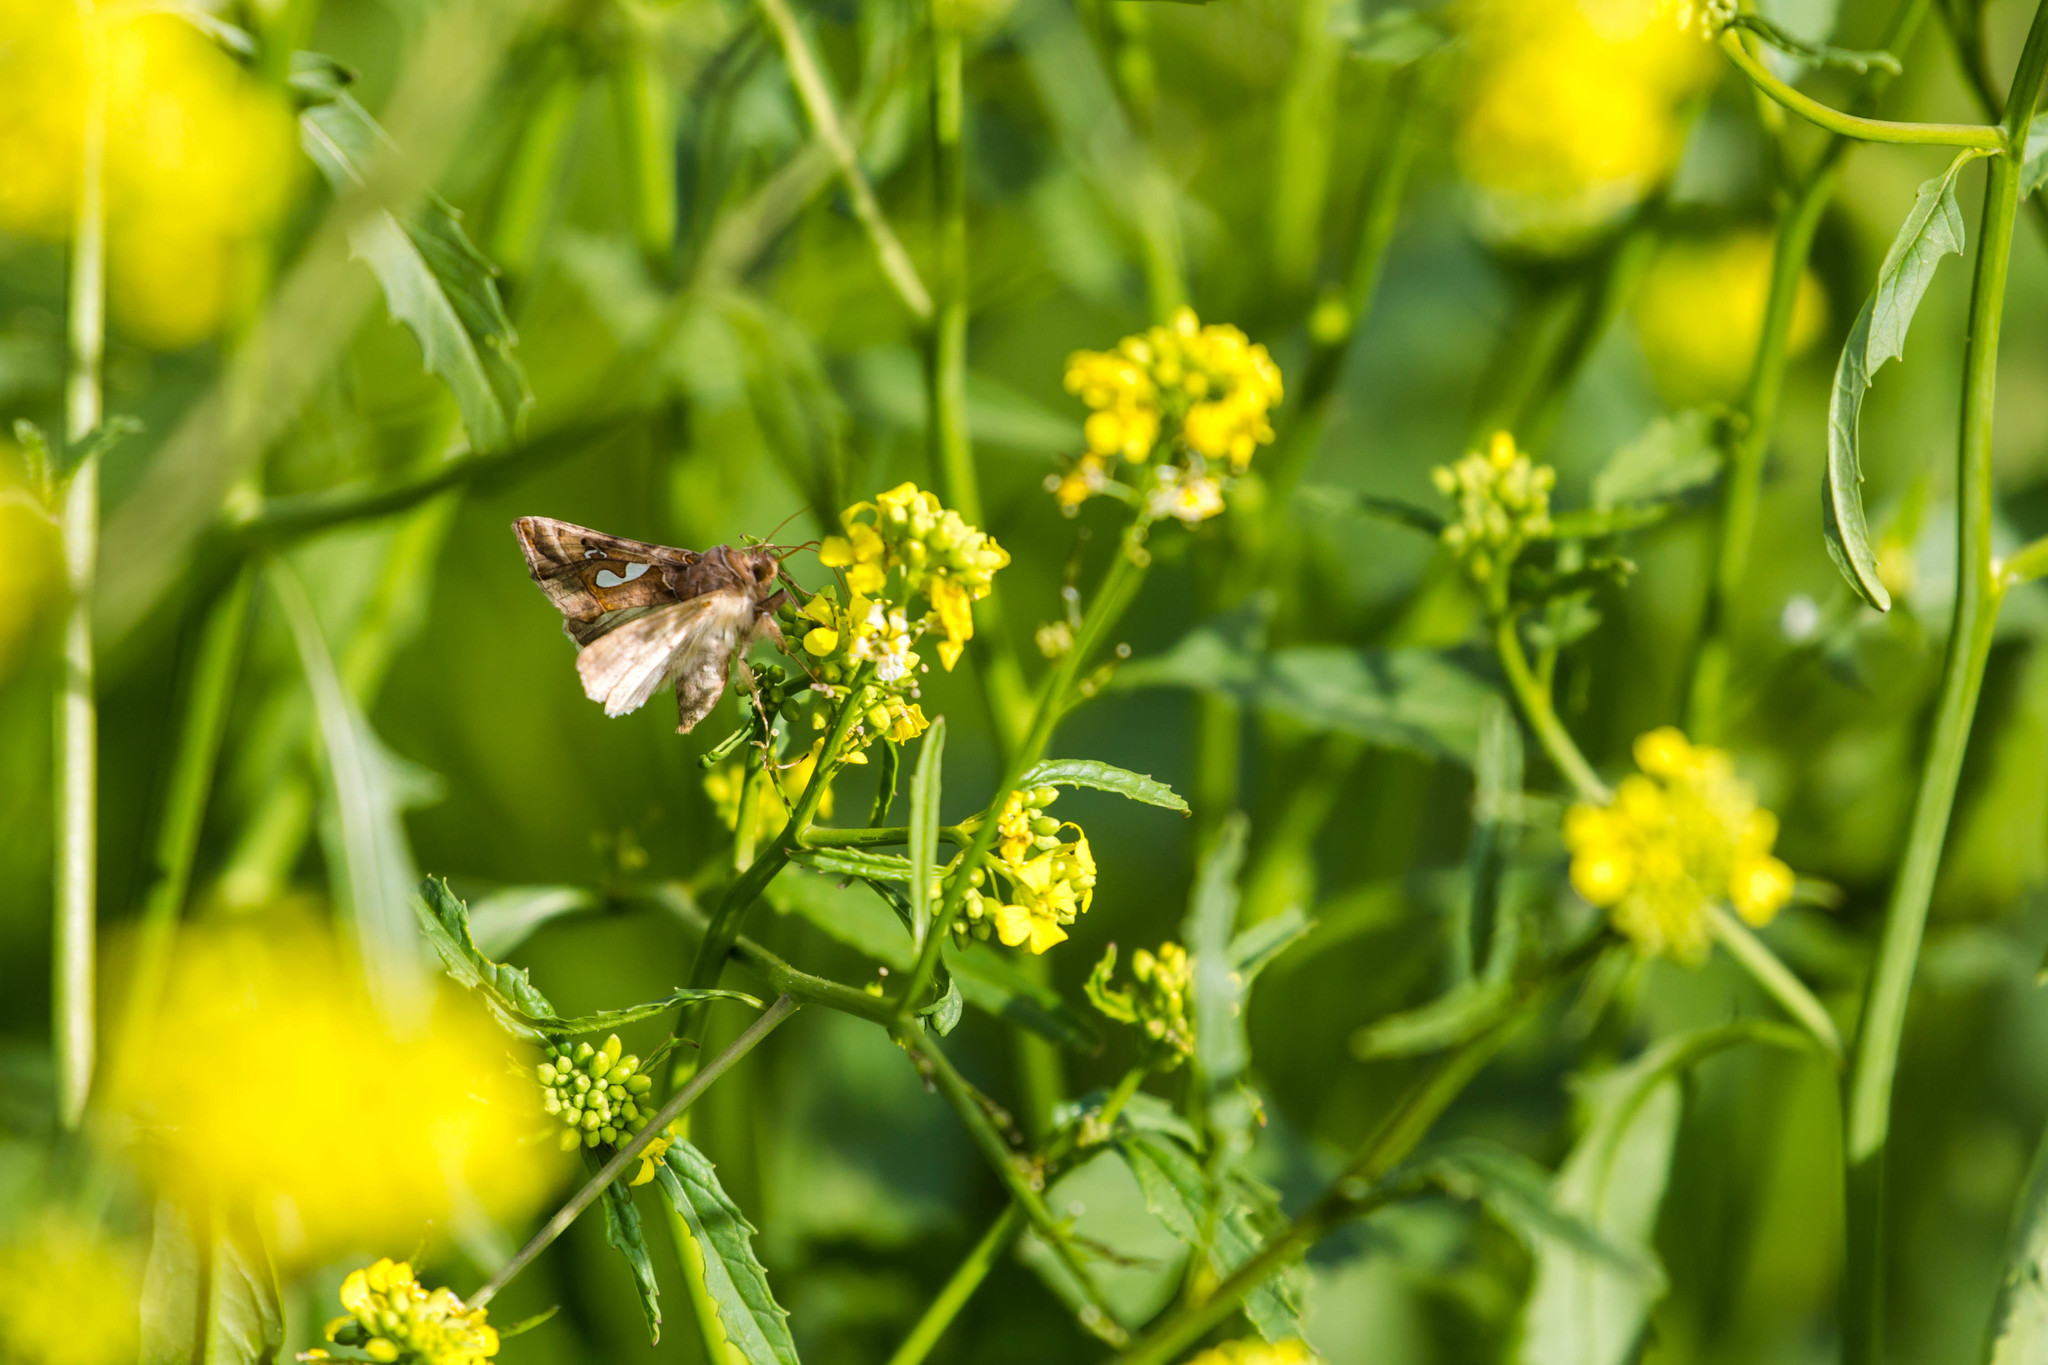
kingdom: Animalia
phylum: Arthropoda
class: Insecta
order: Lepidoptera
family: Noctuidae
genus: Megalographa
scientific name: Megalographa biloba
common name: Cutworm
